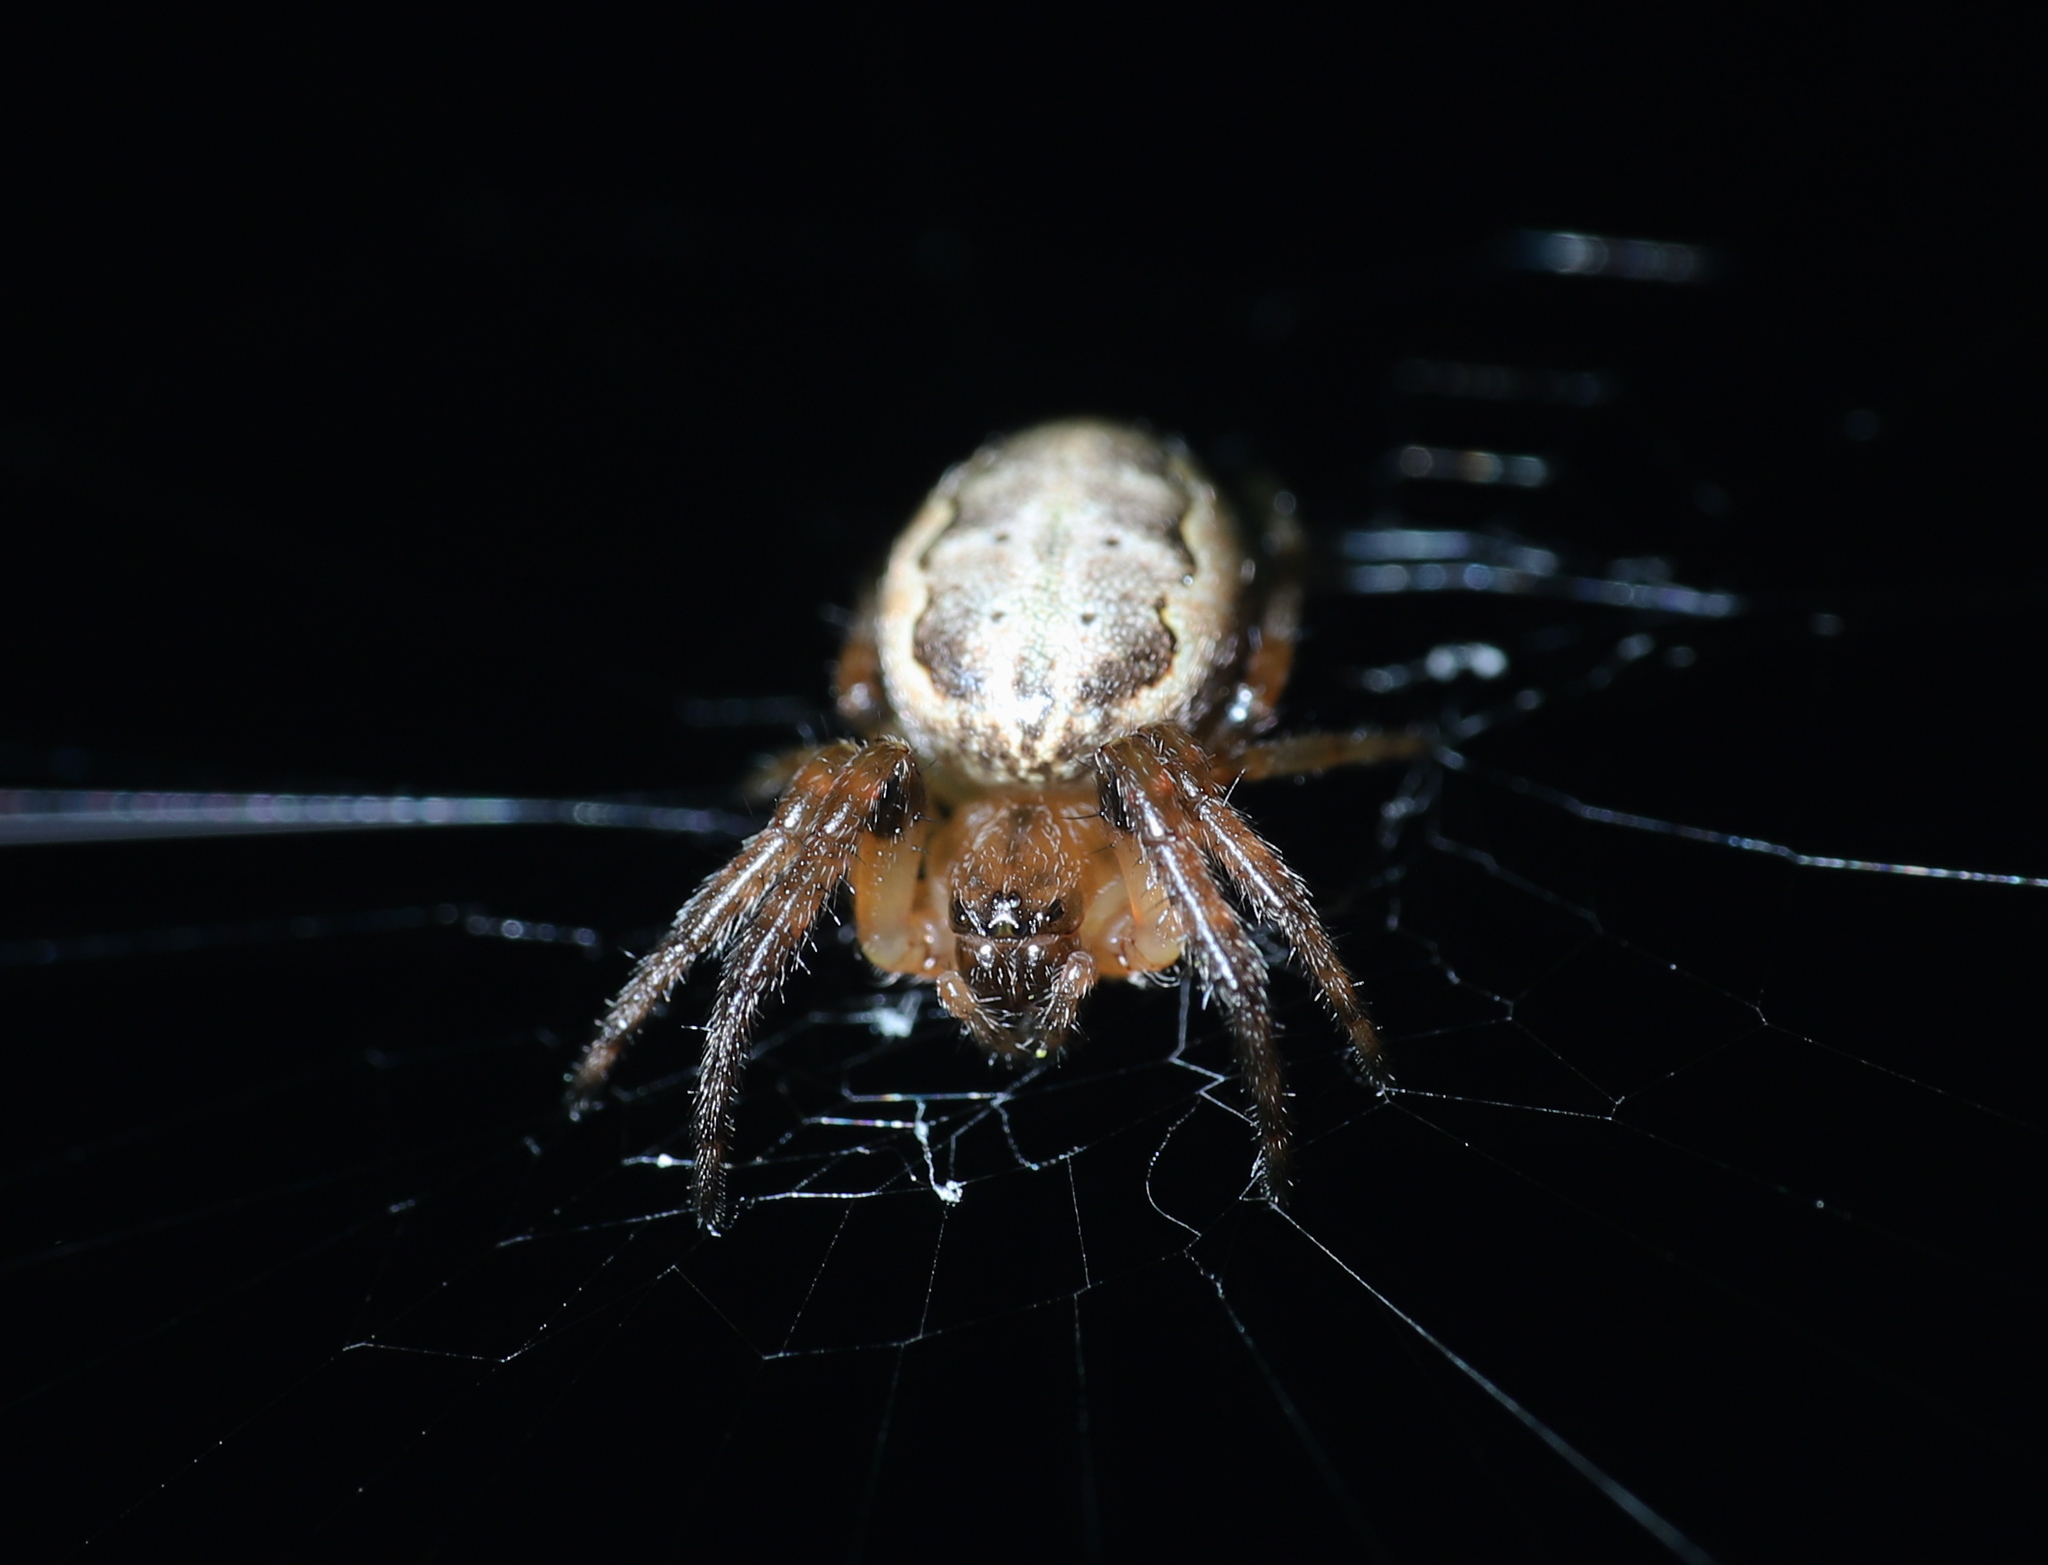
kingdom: Animalia
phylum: Arthropoda
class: Arachnida
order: Araneae
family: Araneidae
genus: Larinioides
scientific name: Larinioides cornutus
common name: Furrow orbweaver
